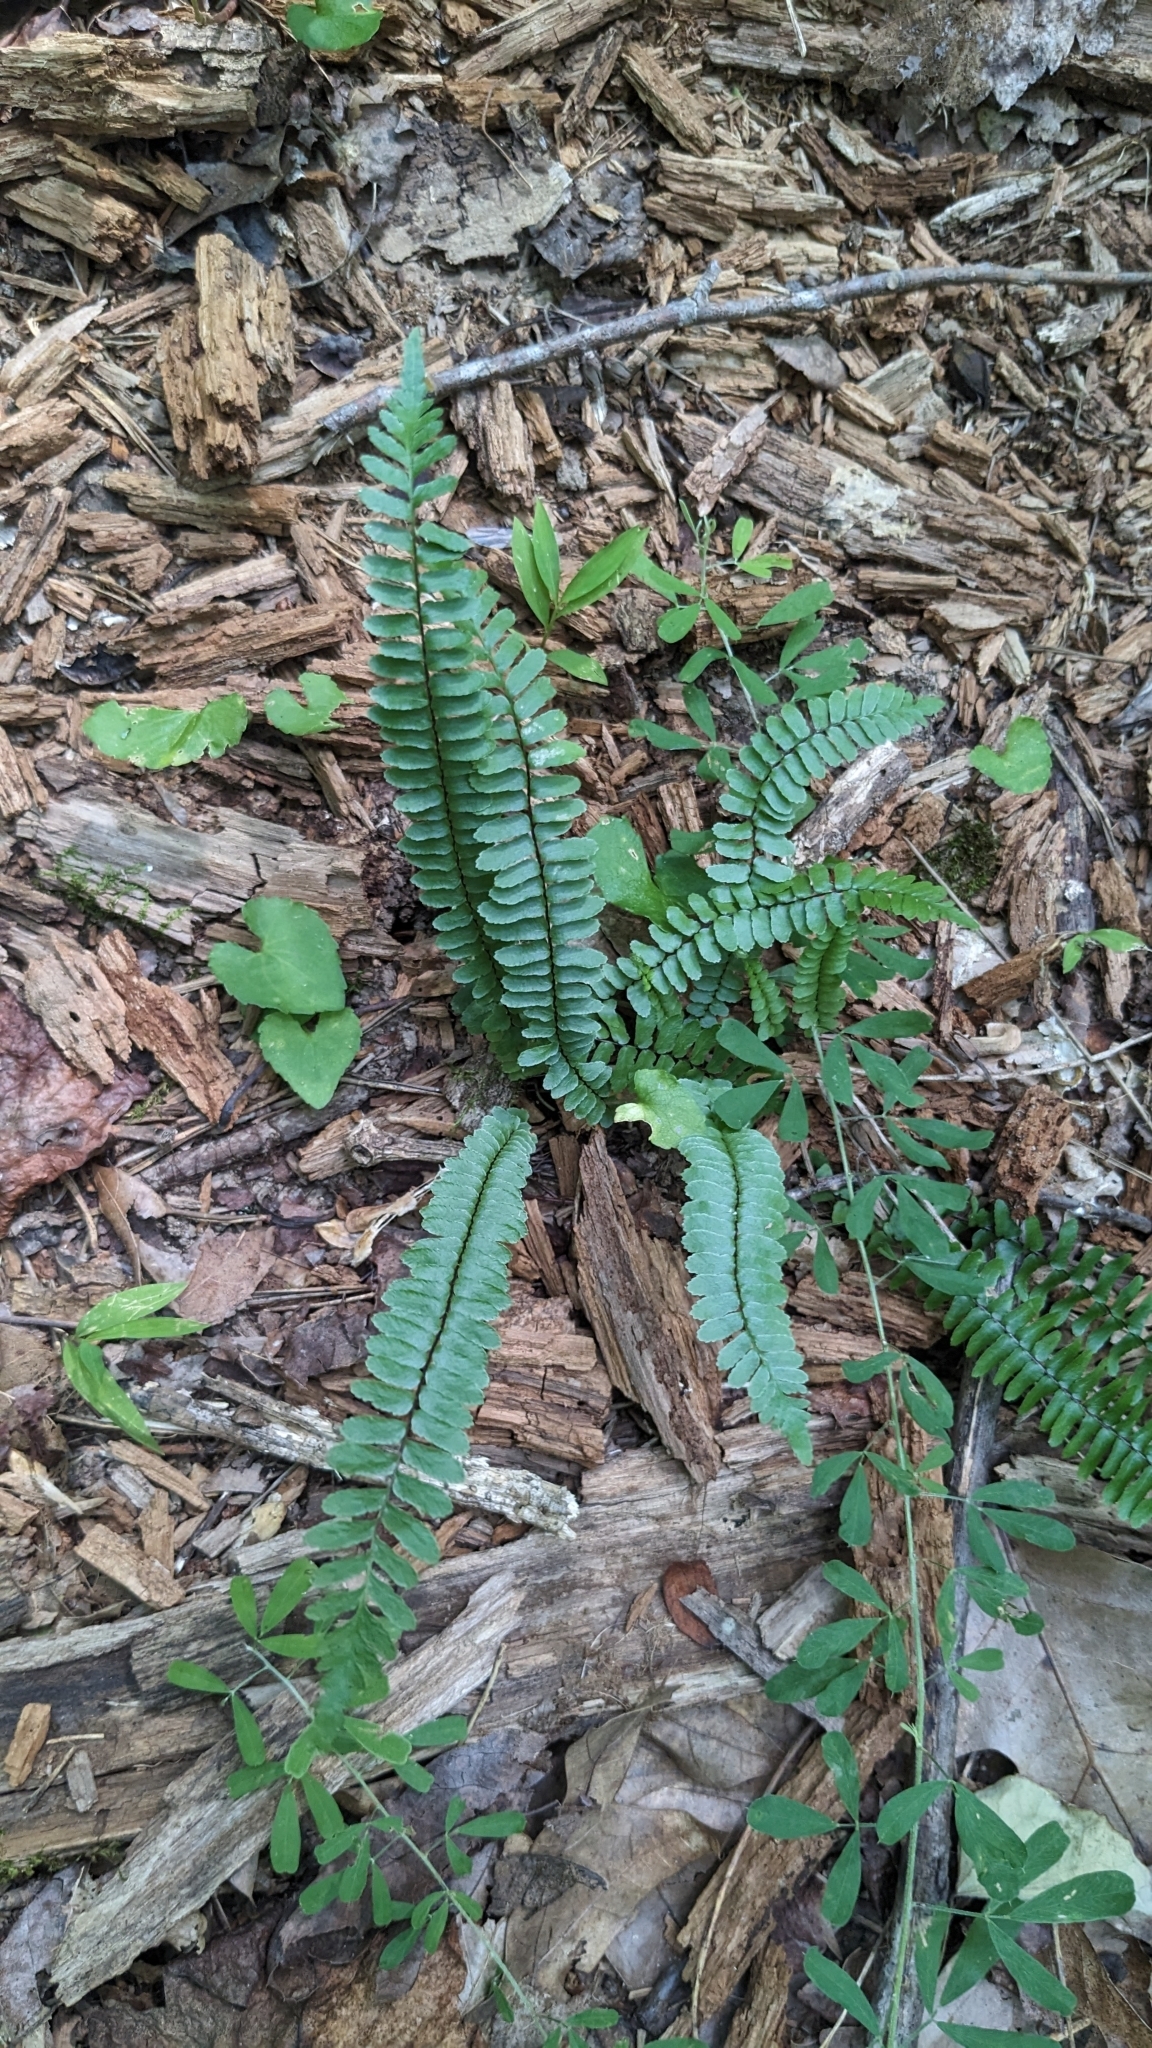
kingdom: Plantae
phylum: Tracheophyta
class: Polypodiopsida
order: Polypodiales
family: Aspleniaceae
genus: Asplenium
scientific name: Asplenium platyneuron
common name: Ebony spleenwort
